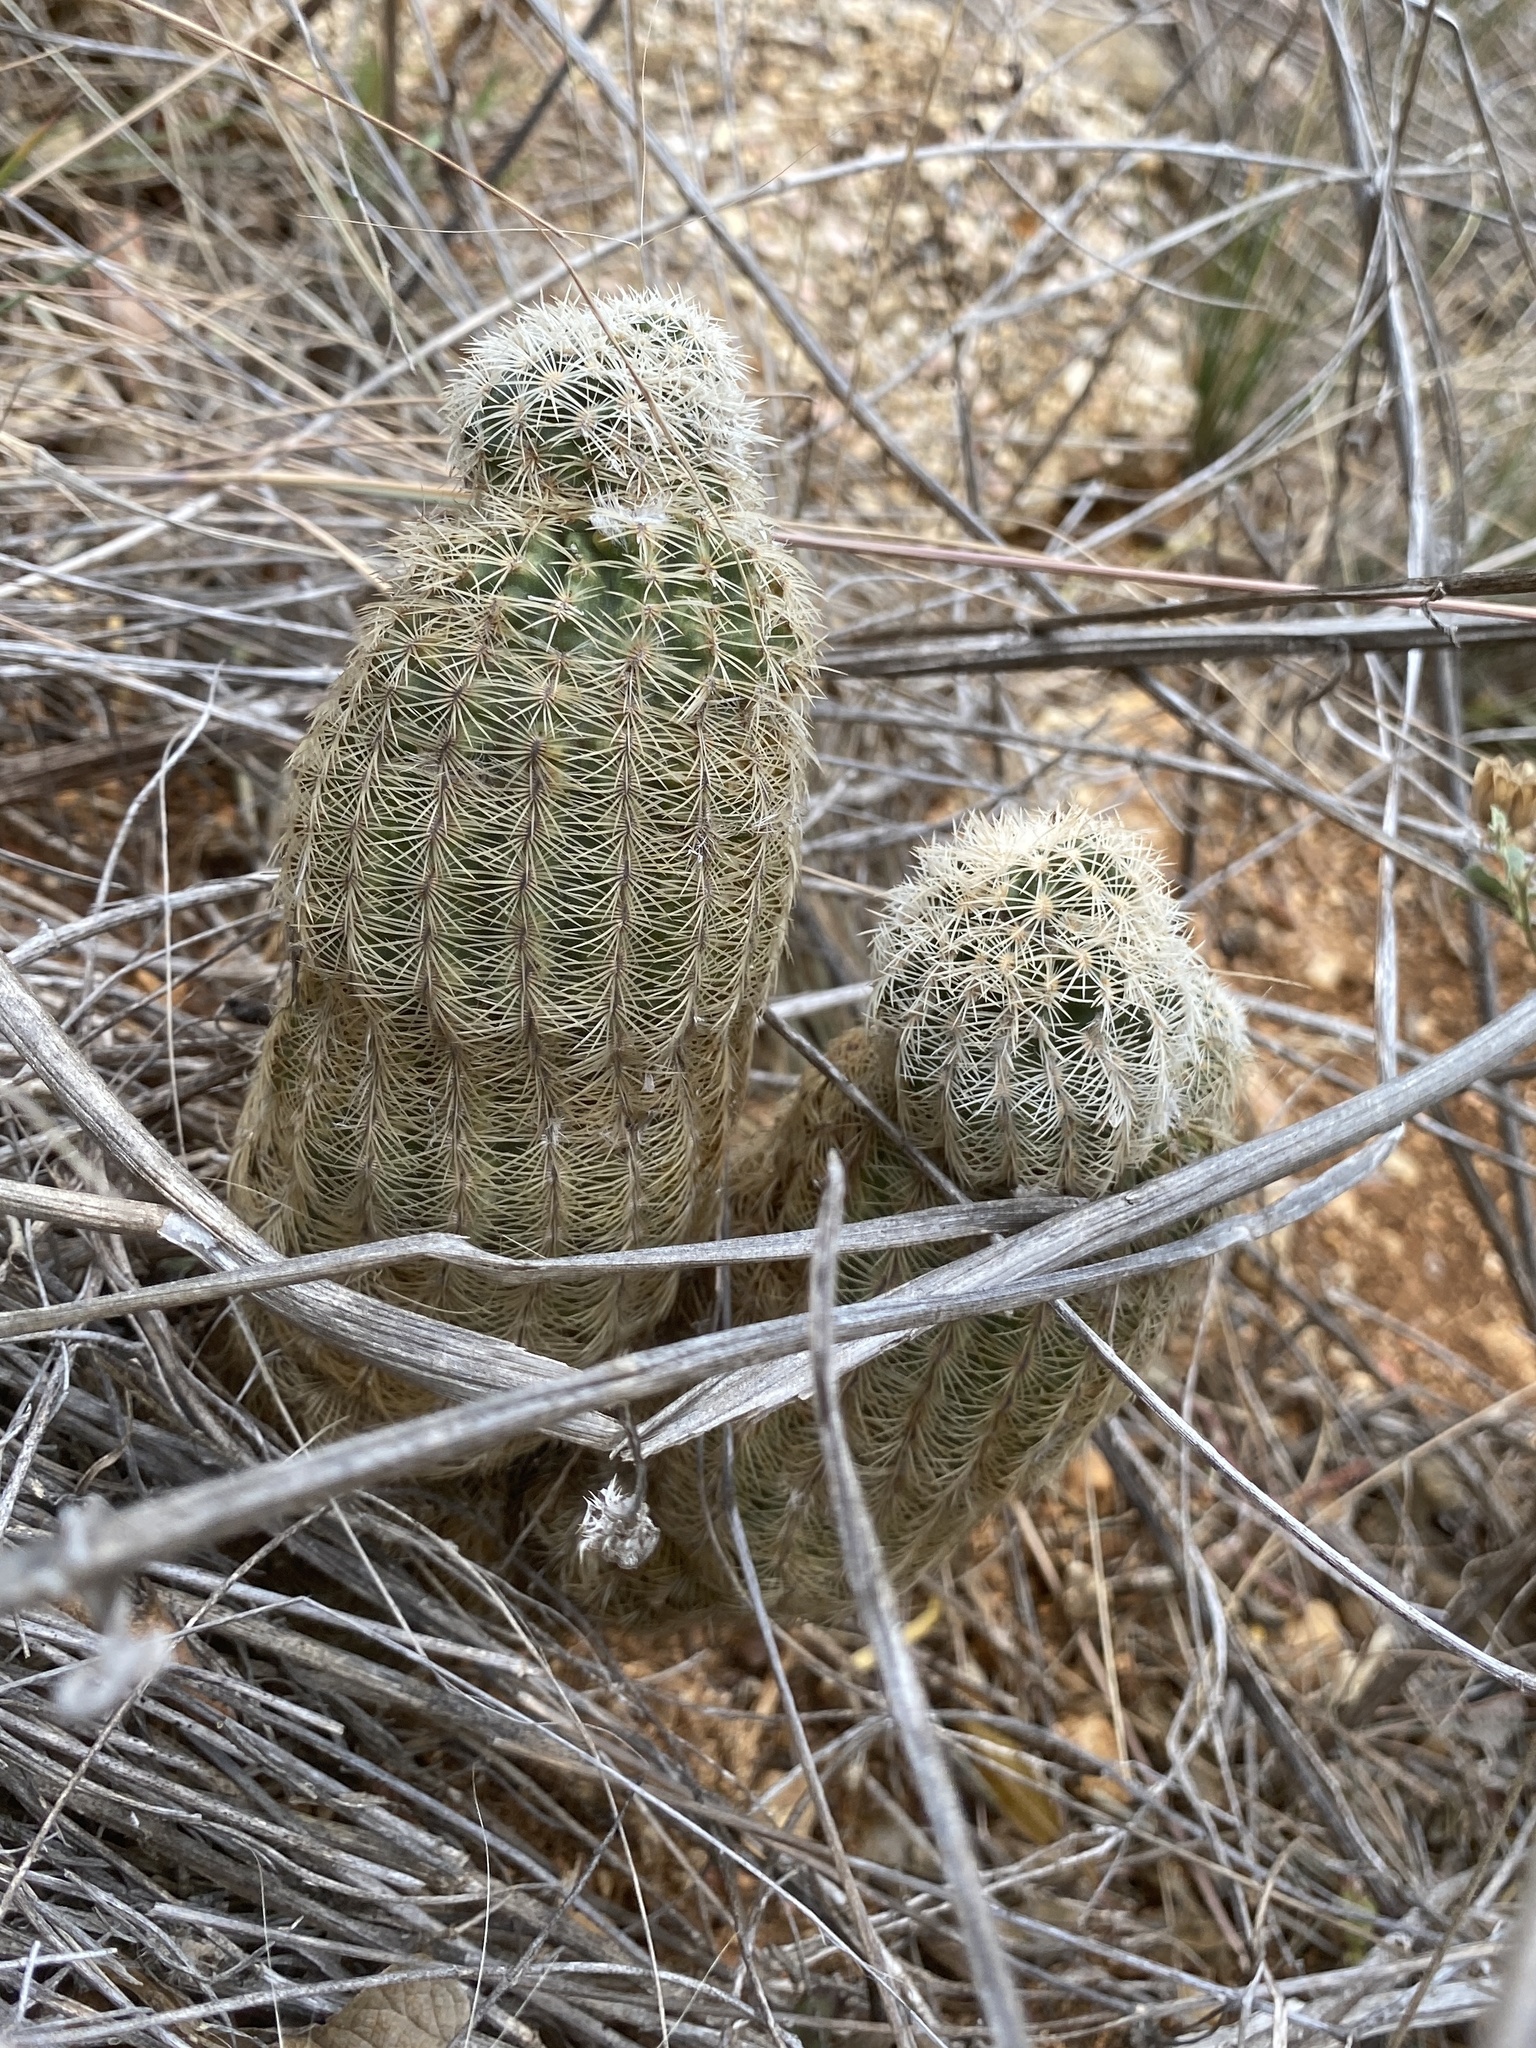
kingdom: Plantae
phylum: Tracheophyta
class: Magnoliopsida
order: Caryophyllales
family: Cactaceae
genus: Echinocereus
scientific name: Echinocereus reichenbachii
